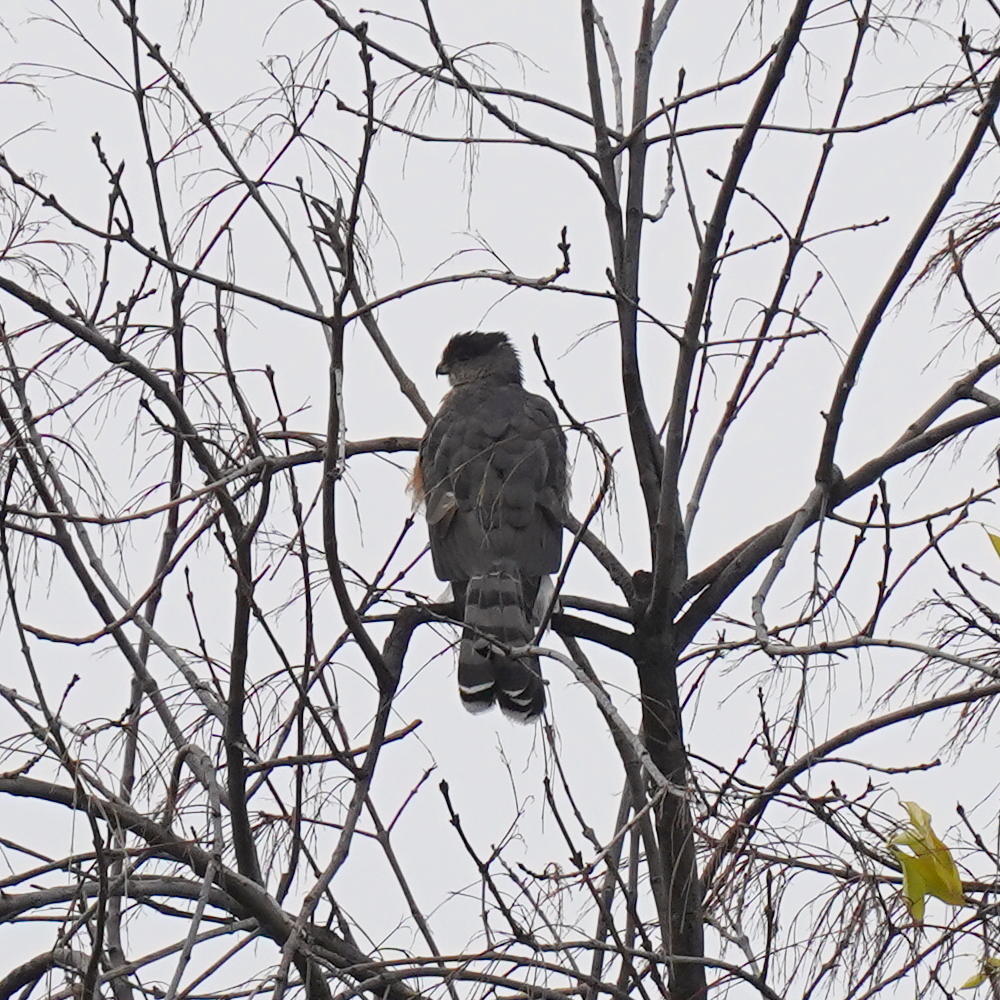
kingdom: Animalia
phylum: Chordata
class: Aves
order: Accipitriformes
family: Accipitridae
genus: Accipiter
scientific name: Accipiter cooperii
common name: Cooper's hawk
